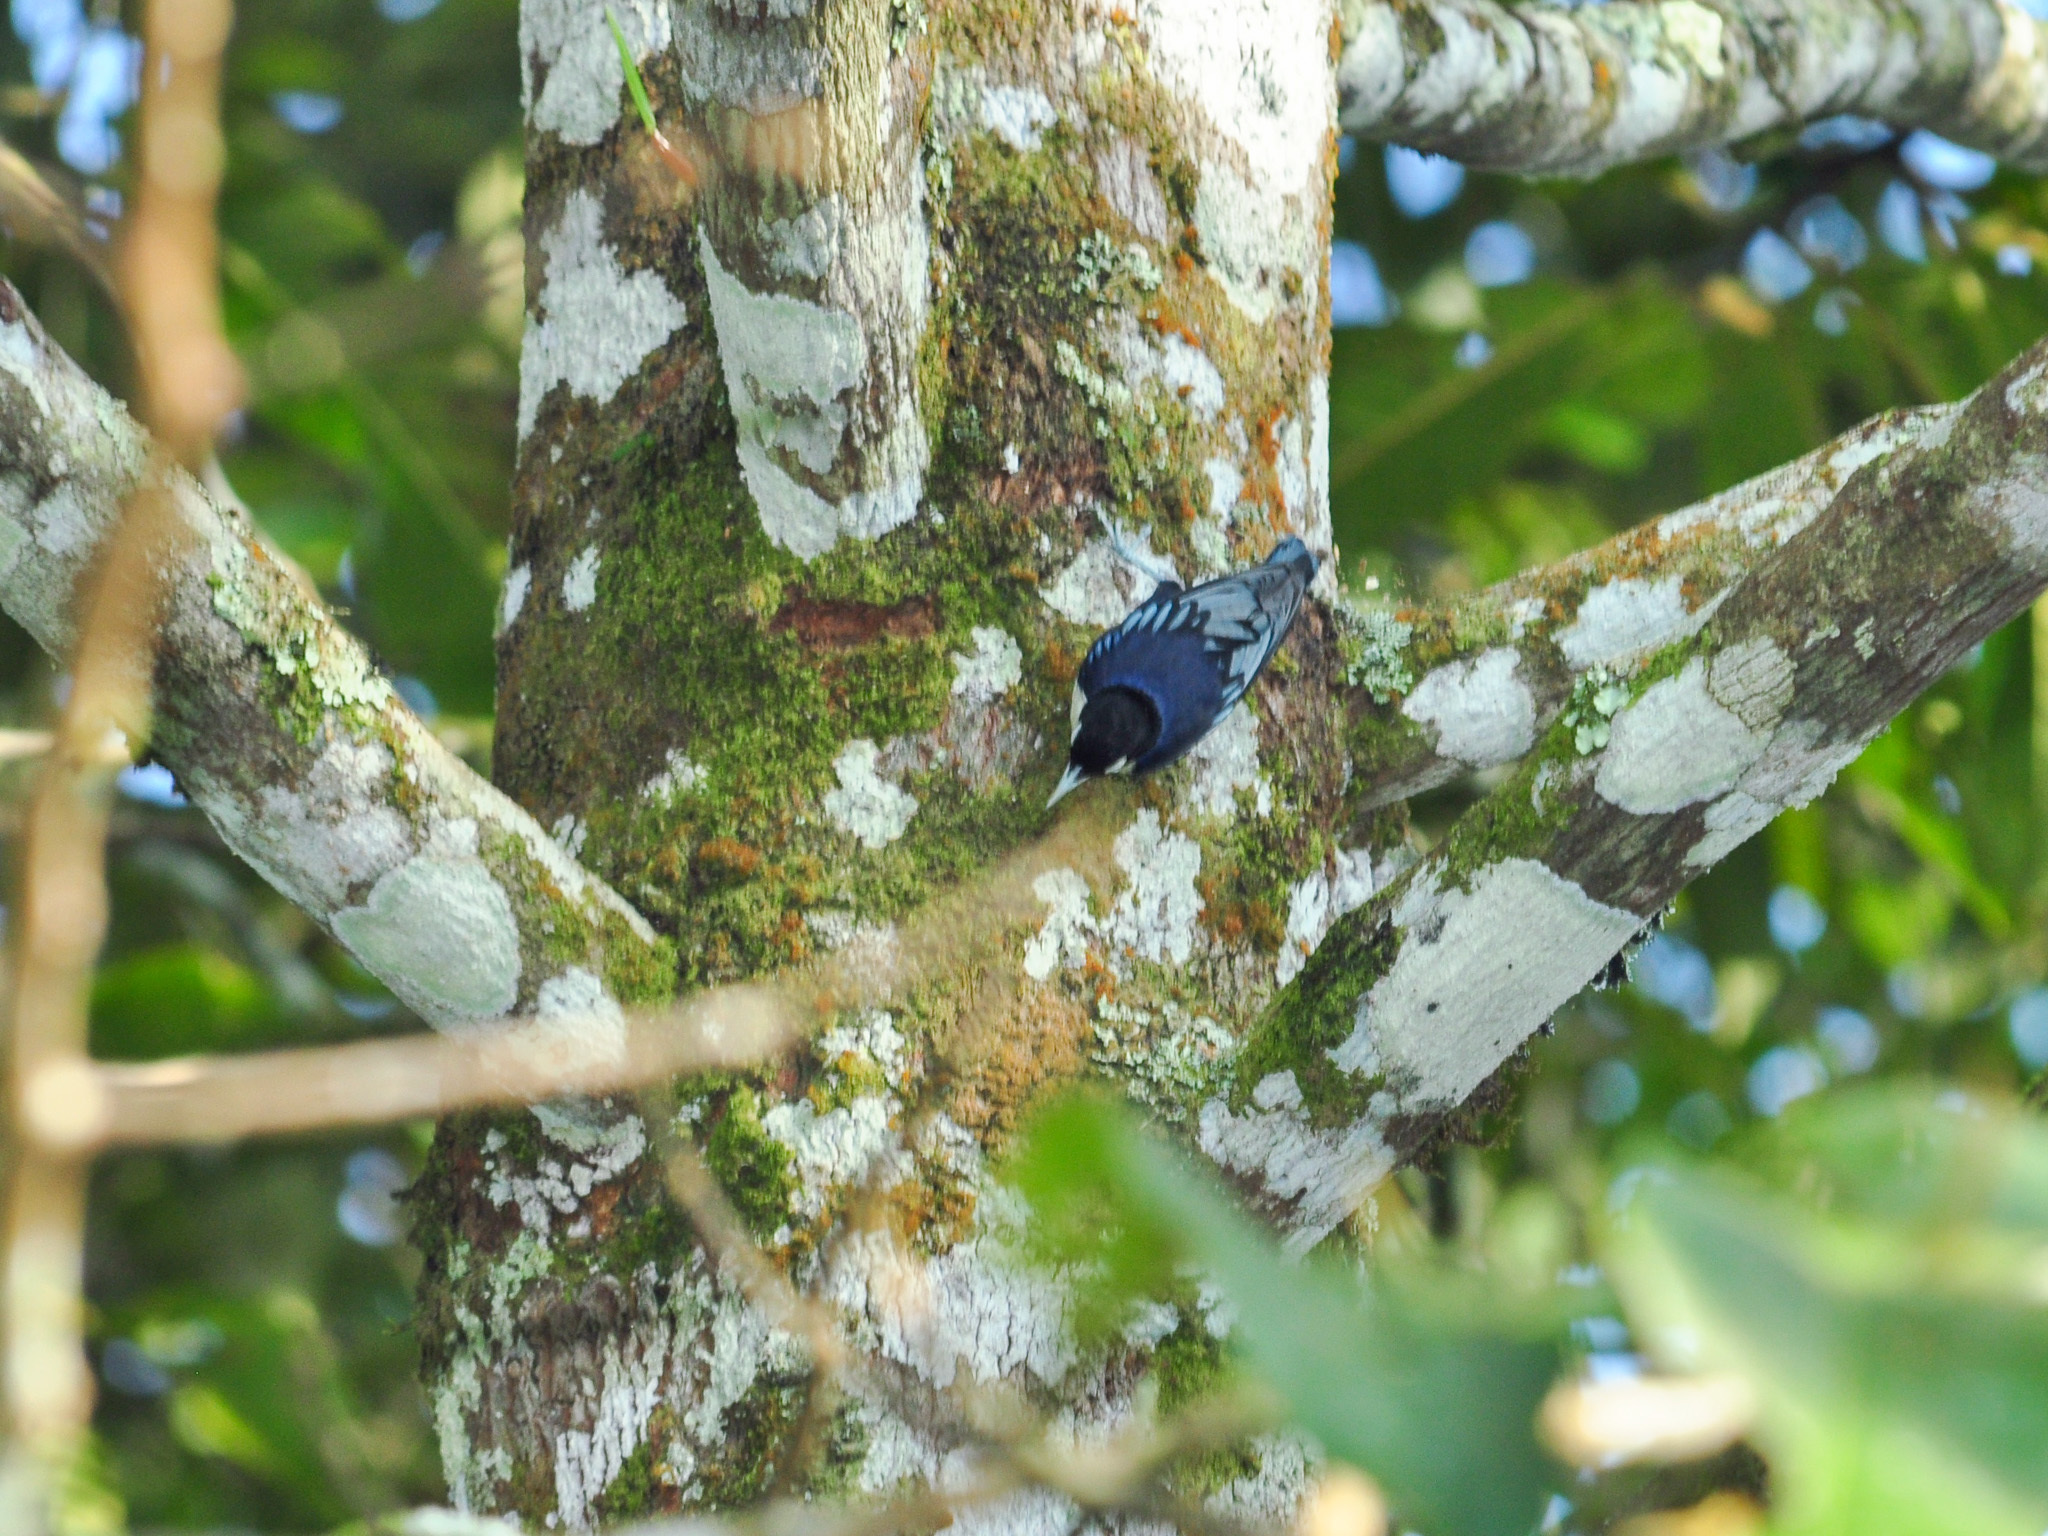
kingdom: Animalia
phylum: Chordata
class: Aves
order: Passeriformes
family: Sittidae
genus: Sitta
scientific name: Sitta azurea
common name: Blue nuthatch
